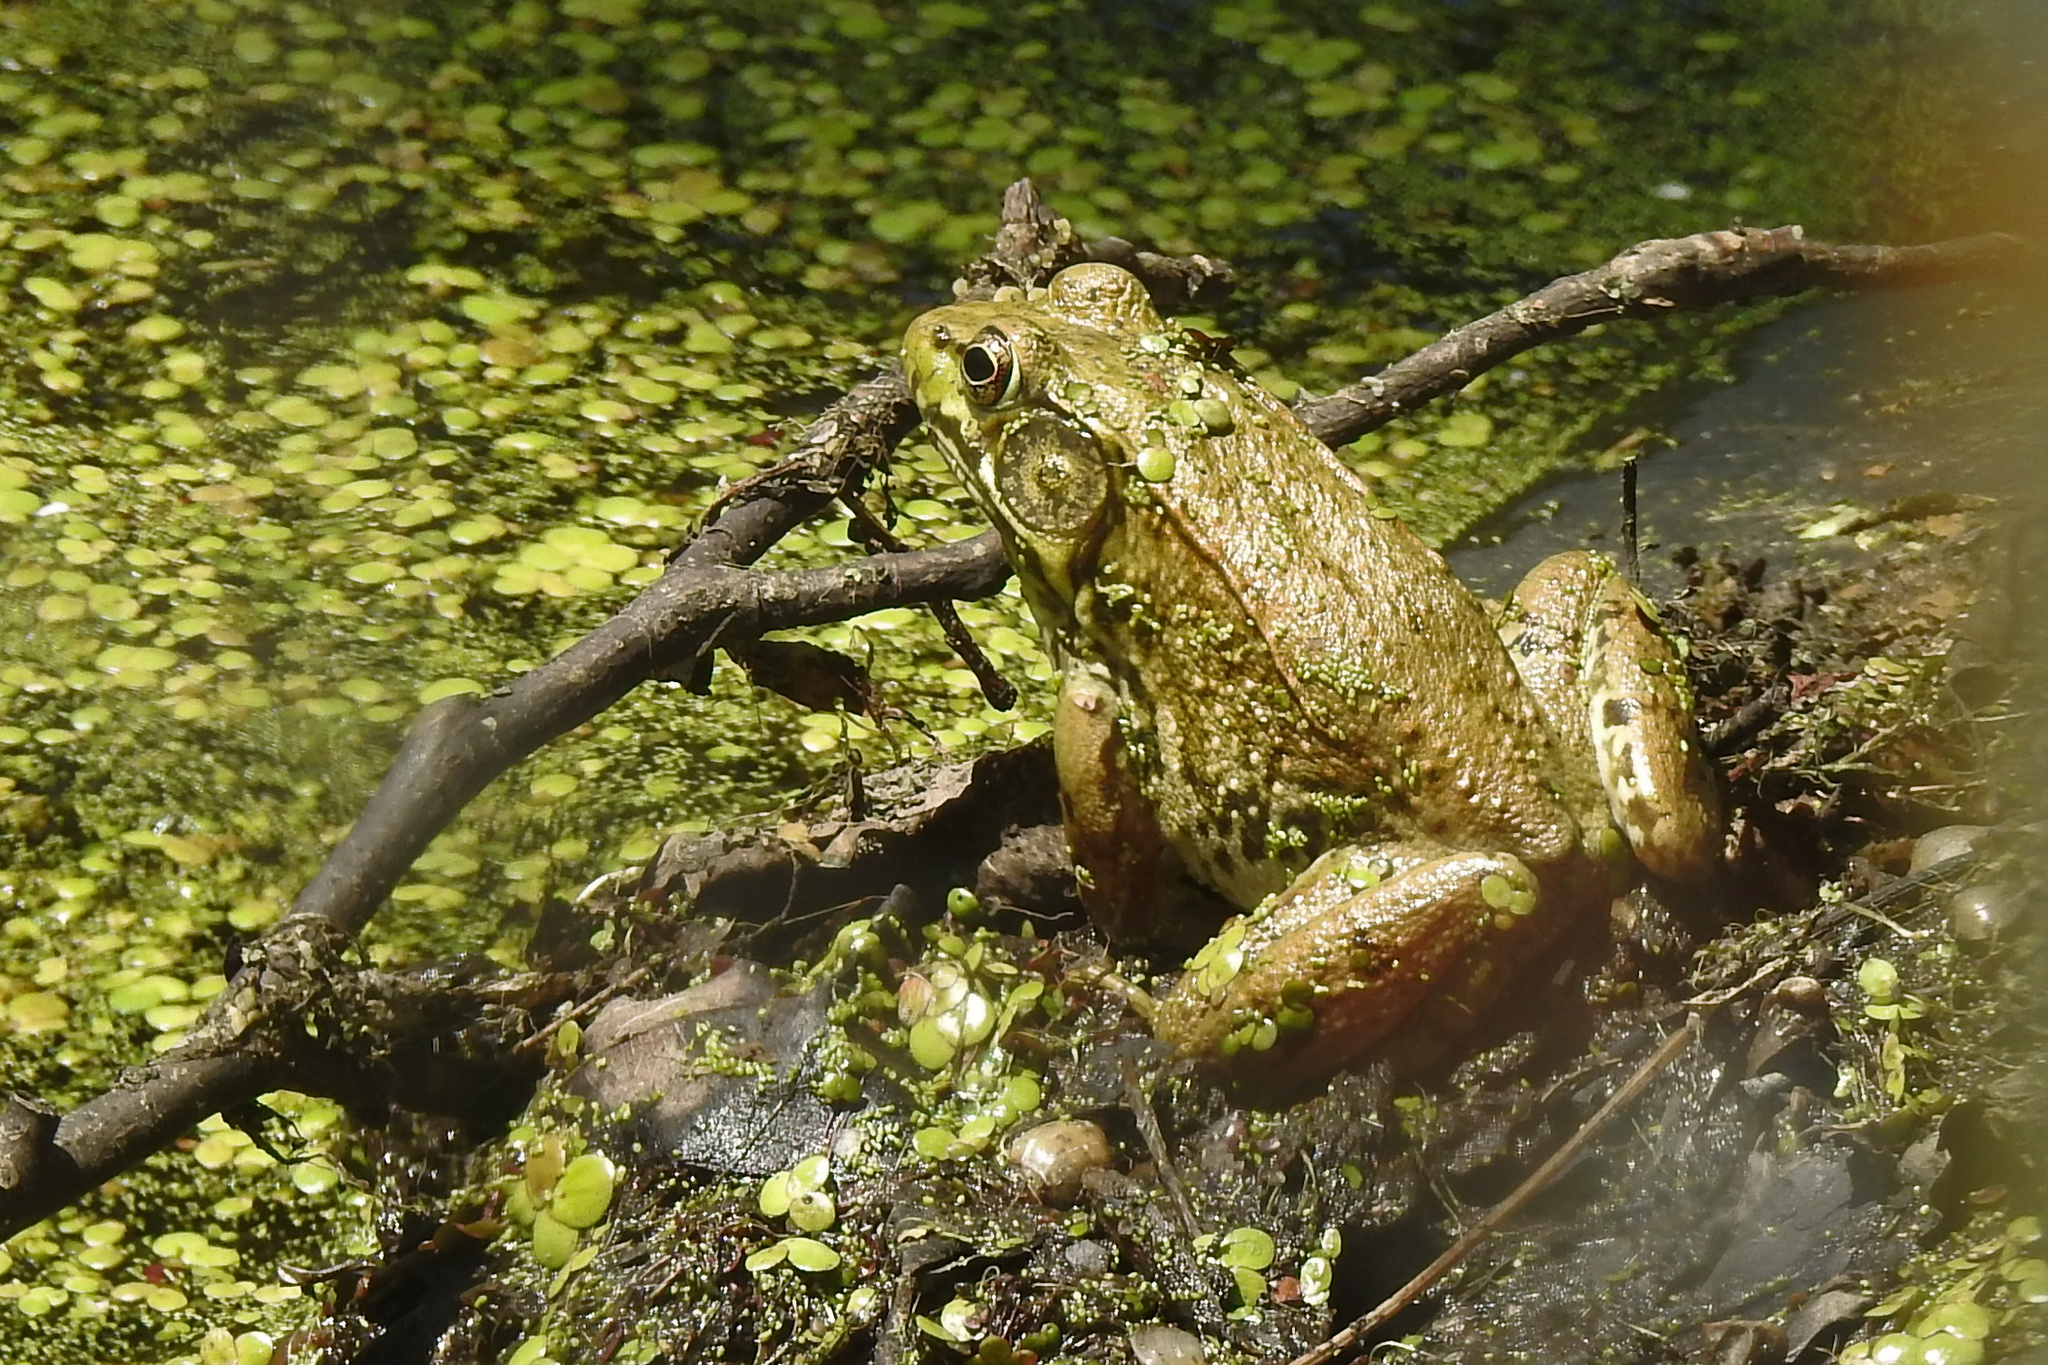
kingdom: Animalia
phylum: Chordata
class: Amphibia
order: Anura
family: Ranidae
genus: Lithobates
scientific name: Lithobates clamitans
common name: Green frog
